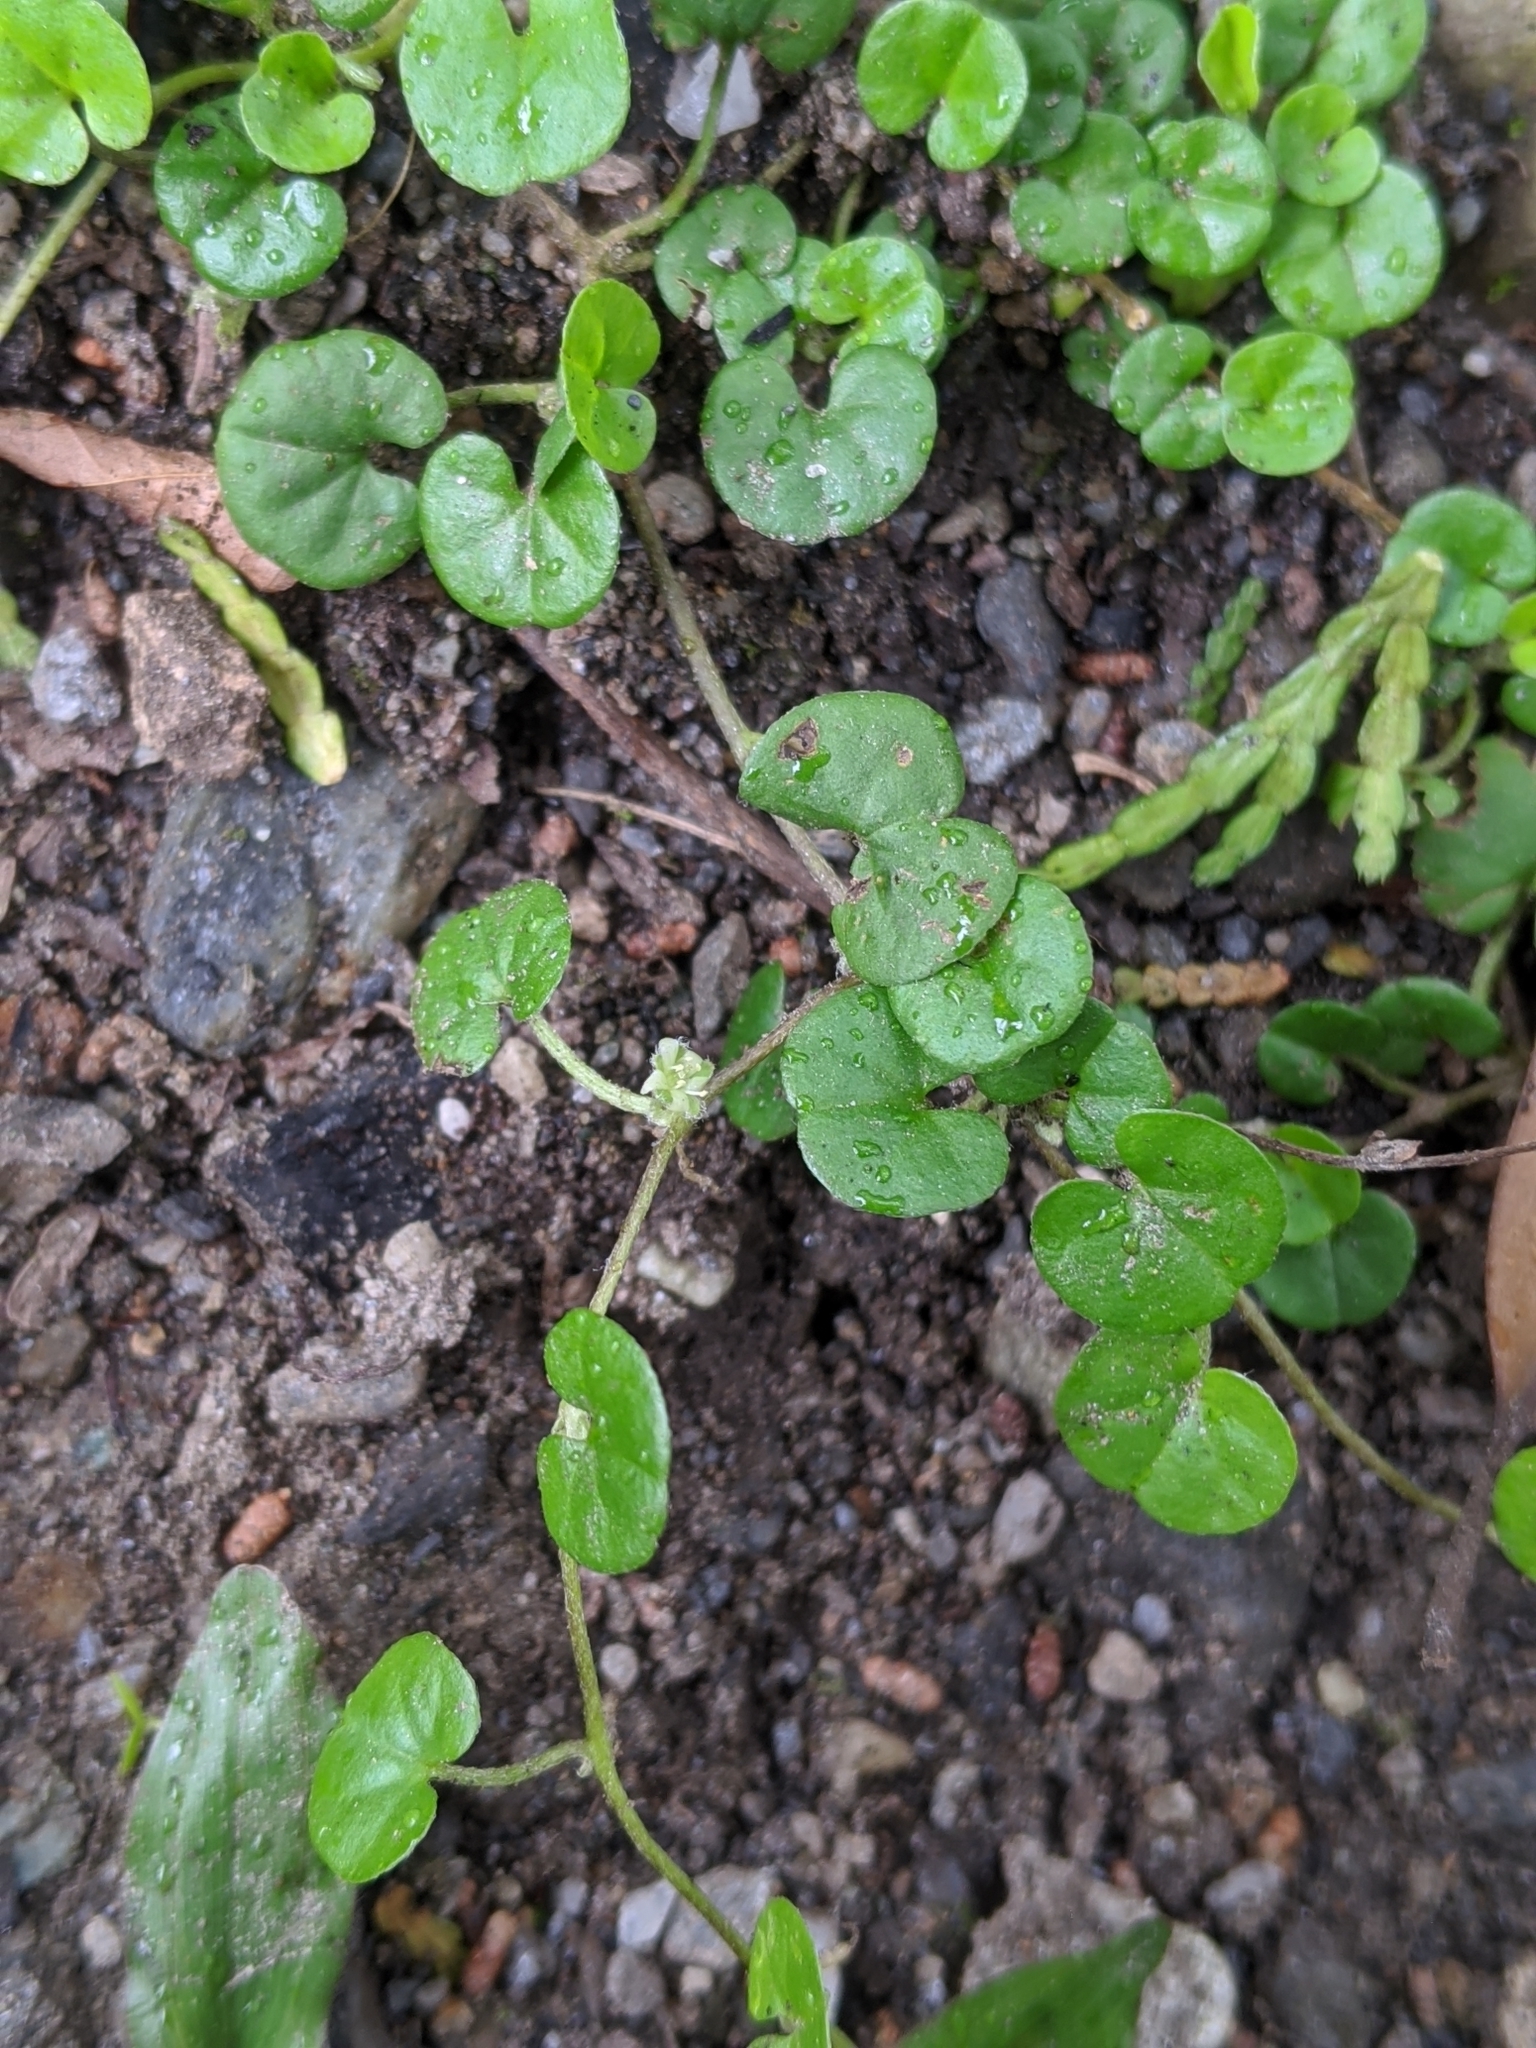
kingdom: Plantae
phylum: Tracheophyta
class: Magnoliopsida
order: Solanales
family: Convolvulaceae
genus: Dichondra
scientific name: Dichondra micrantha
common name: Kidneyweed
